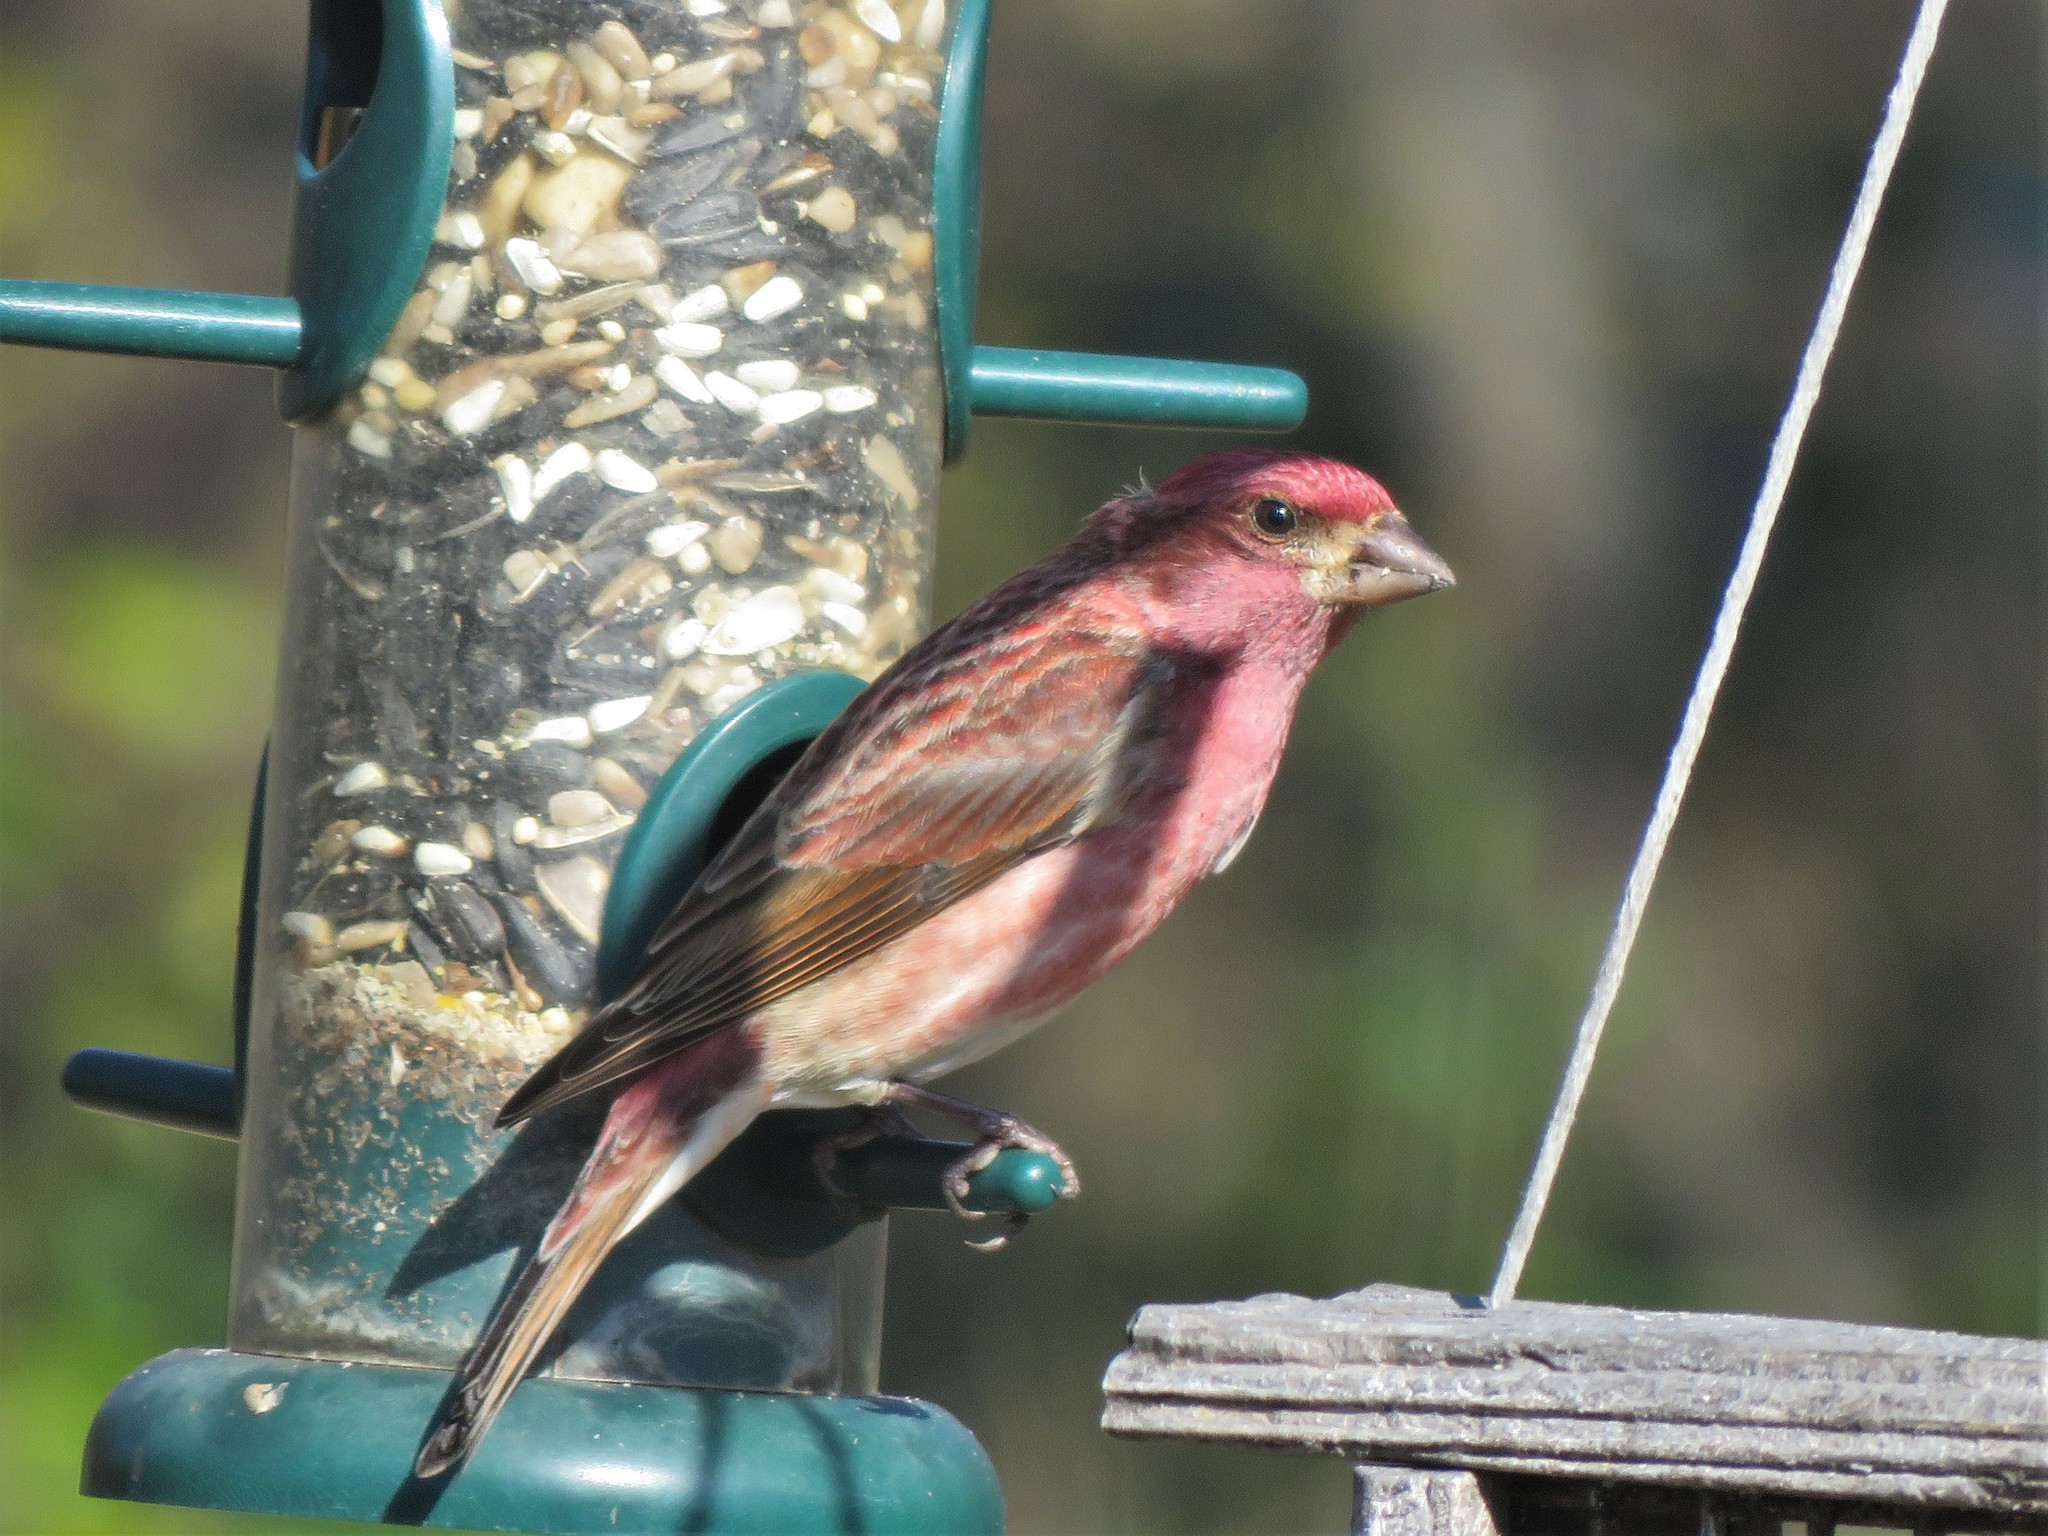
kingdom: Animalia
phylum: Chordata
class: Aves
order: Passeriformes
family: Fringillidae
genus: Haemorhous
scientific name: Haemorhous purpureus
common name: Purple finch
